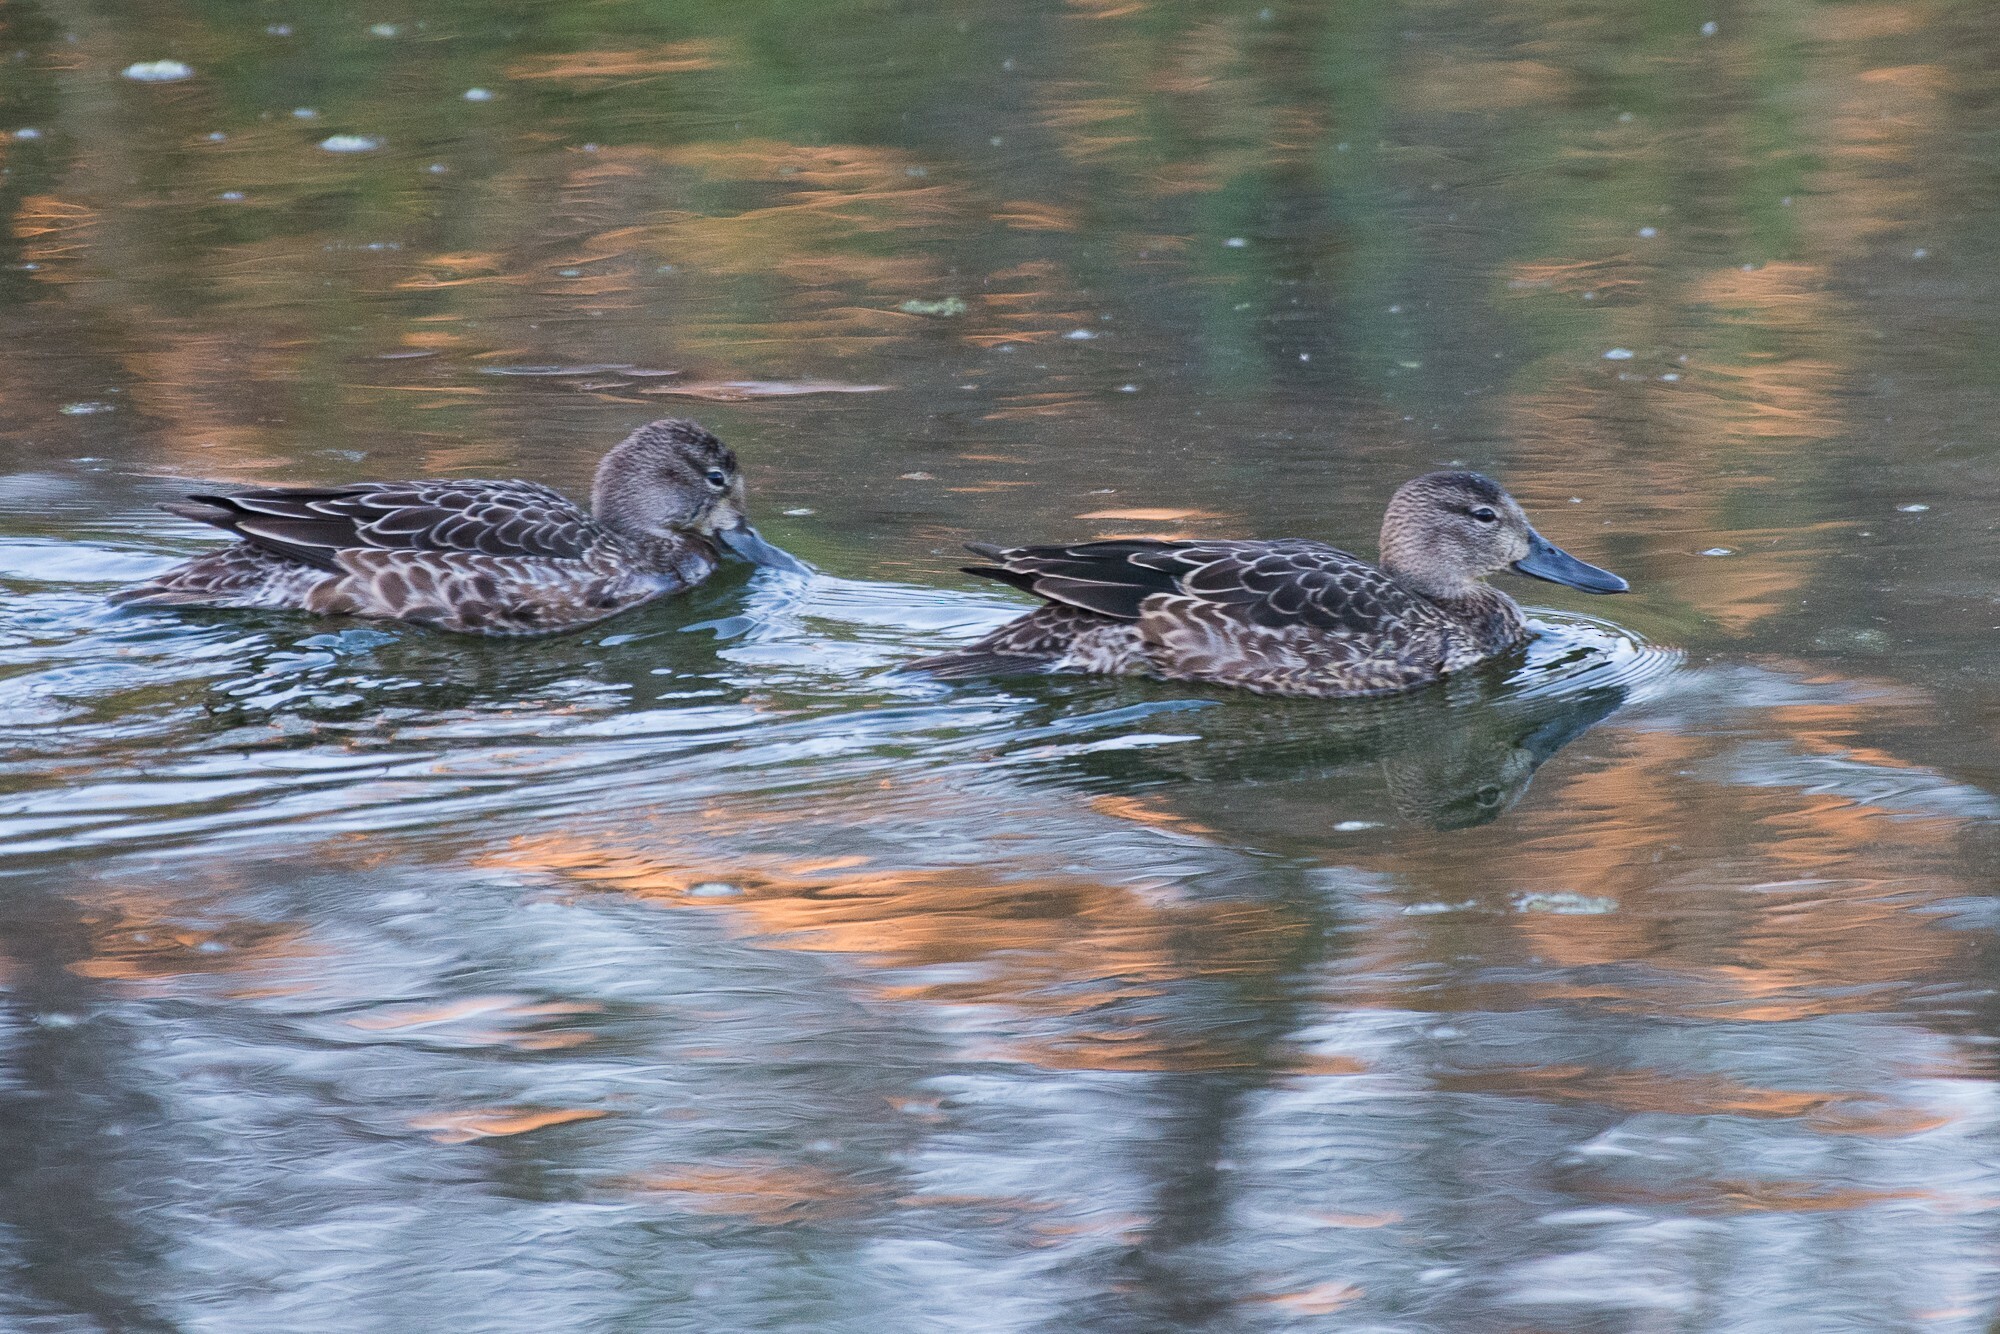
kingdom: Animalia
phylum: Chordata
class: Aves
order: Anseriformes
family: Anatidae
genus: Spatula
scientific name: Spatula discors
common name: Blue-winged teal
